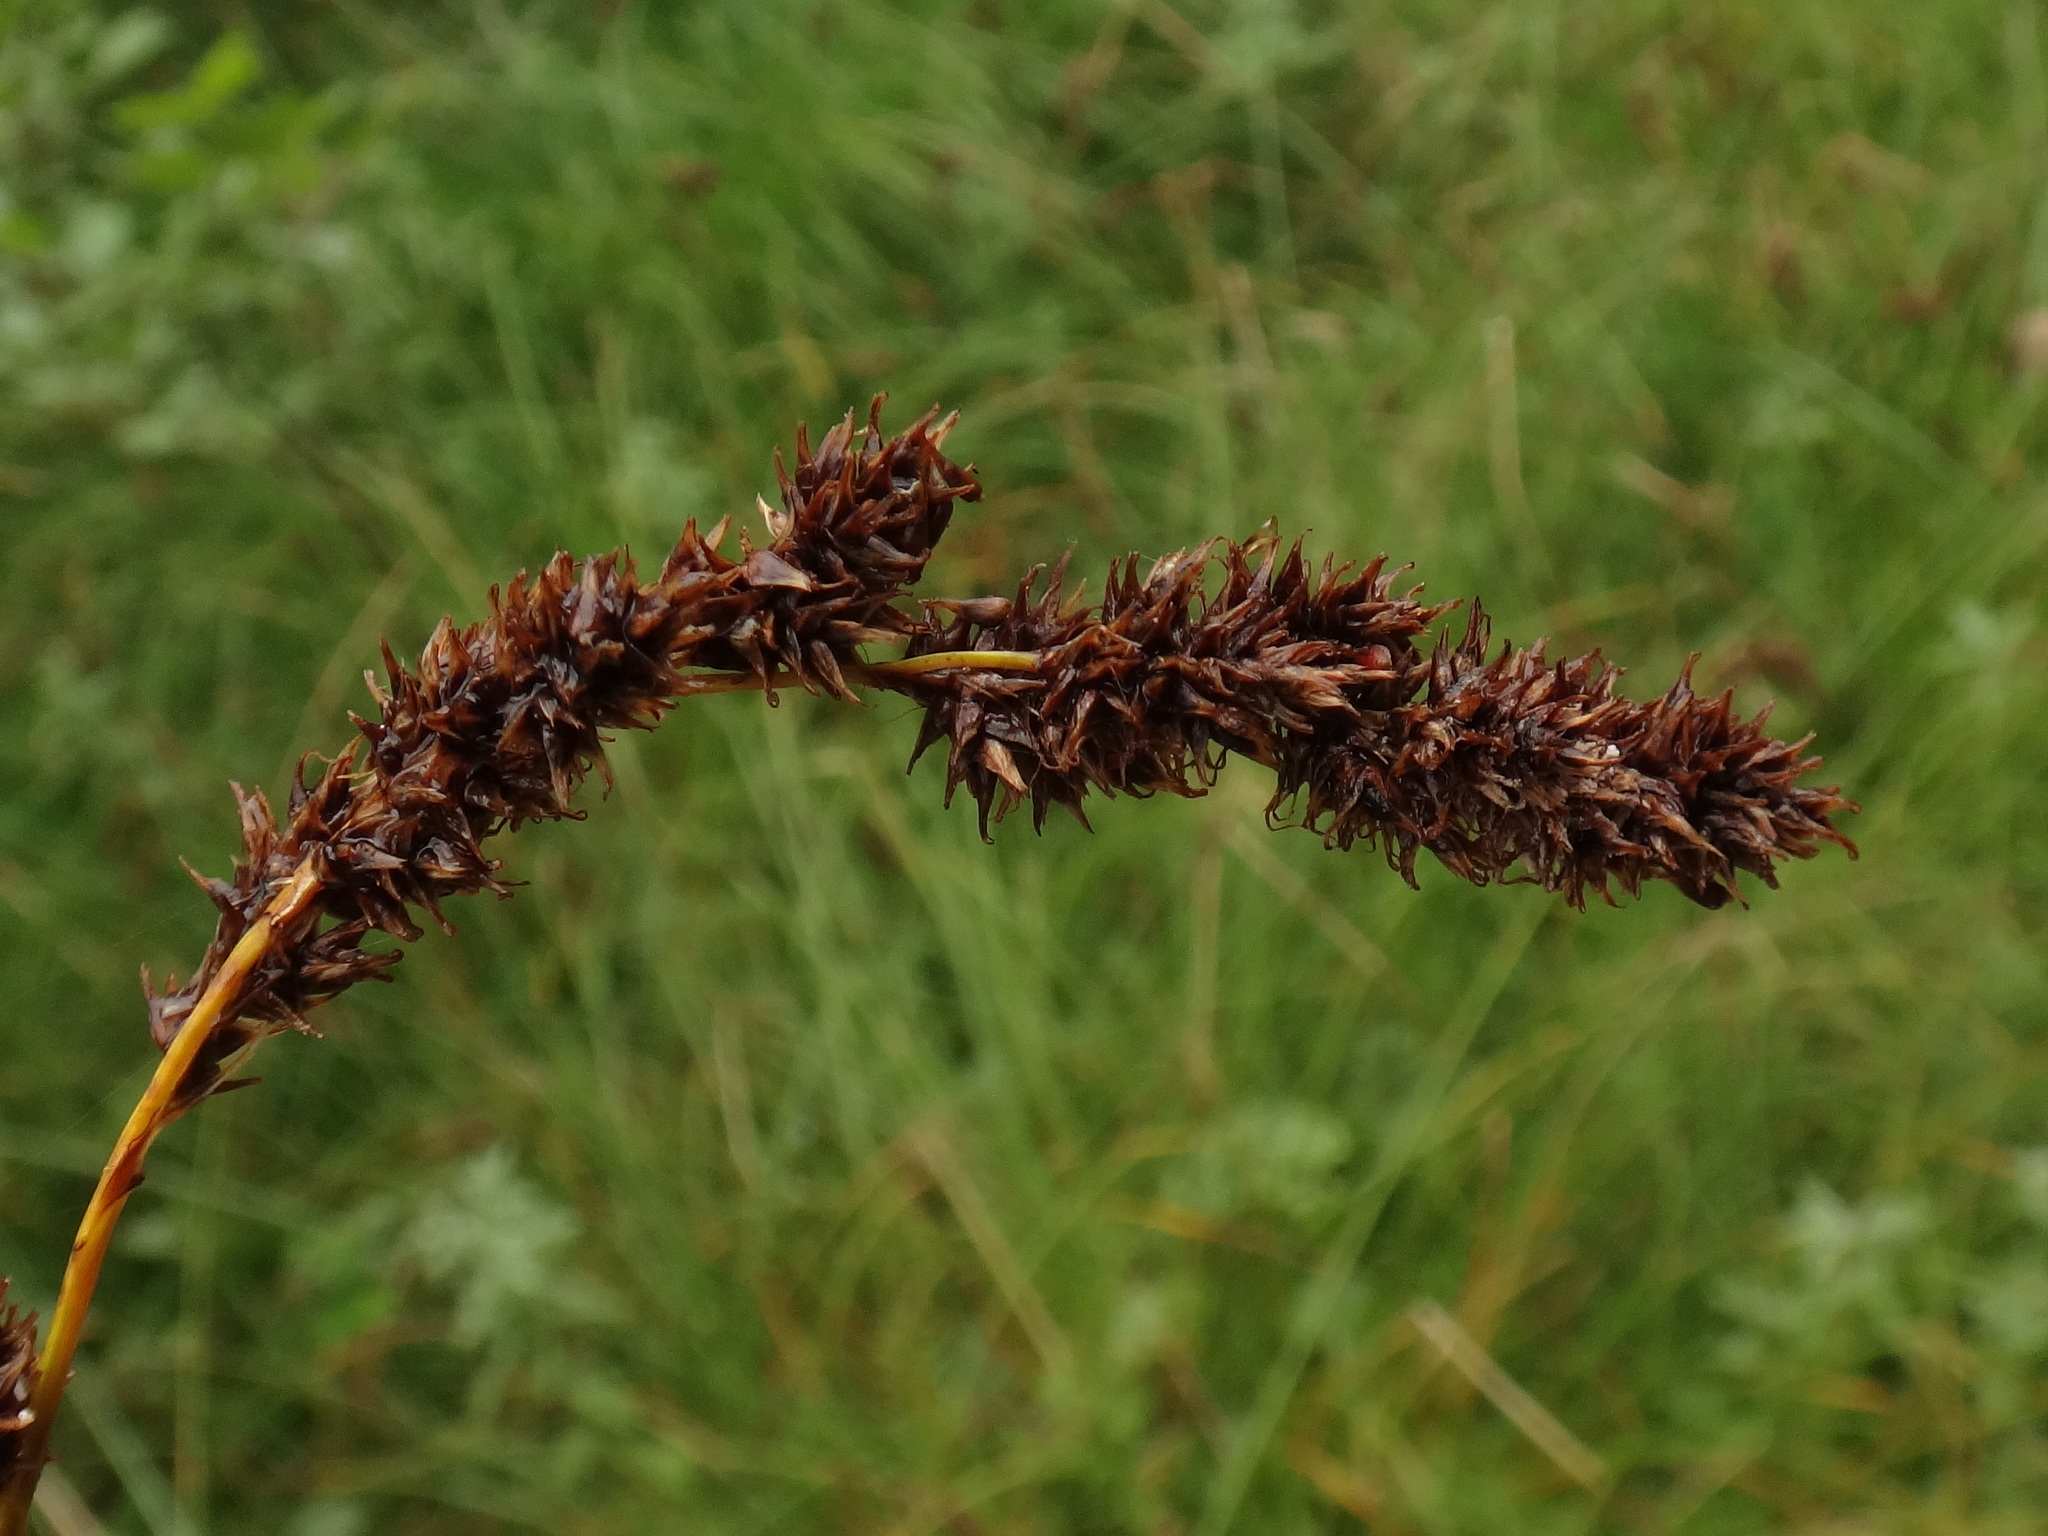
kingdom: Plantae
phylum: Tracheophyta
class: Liliopsida
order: Poales
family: Cyperaceae
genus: Carex
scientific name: Carex paniculata
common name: Greater tussock-sedge
